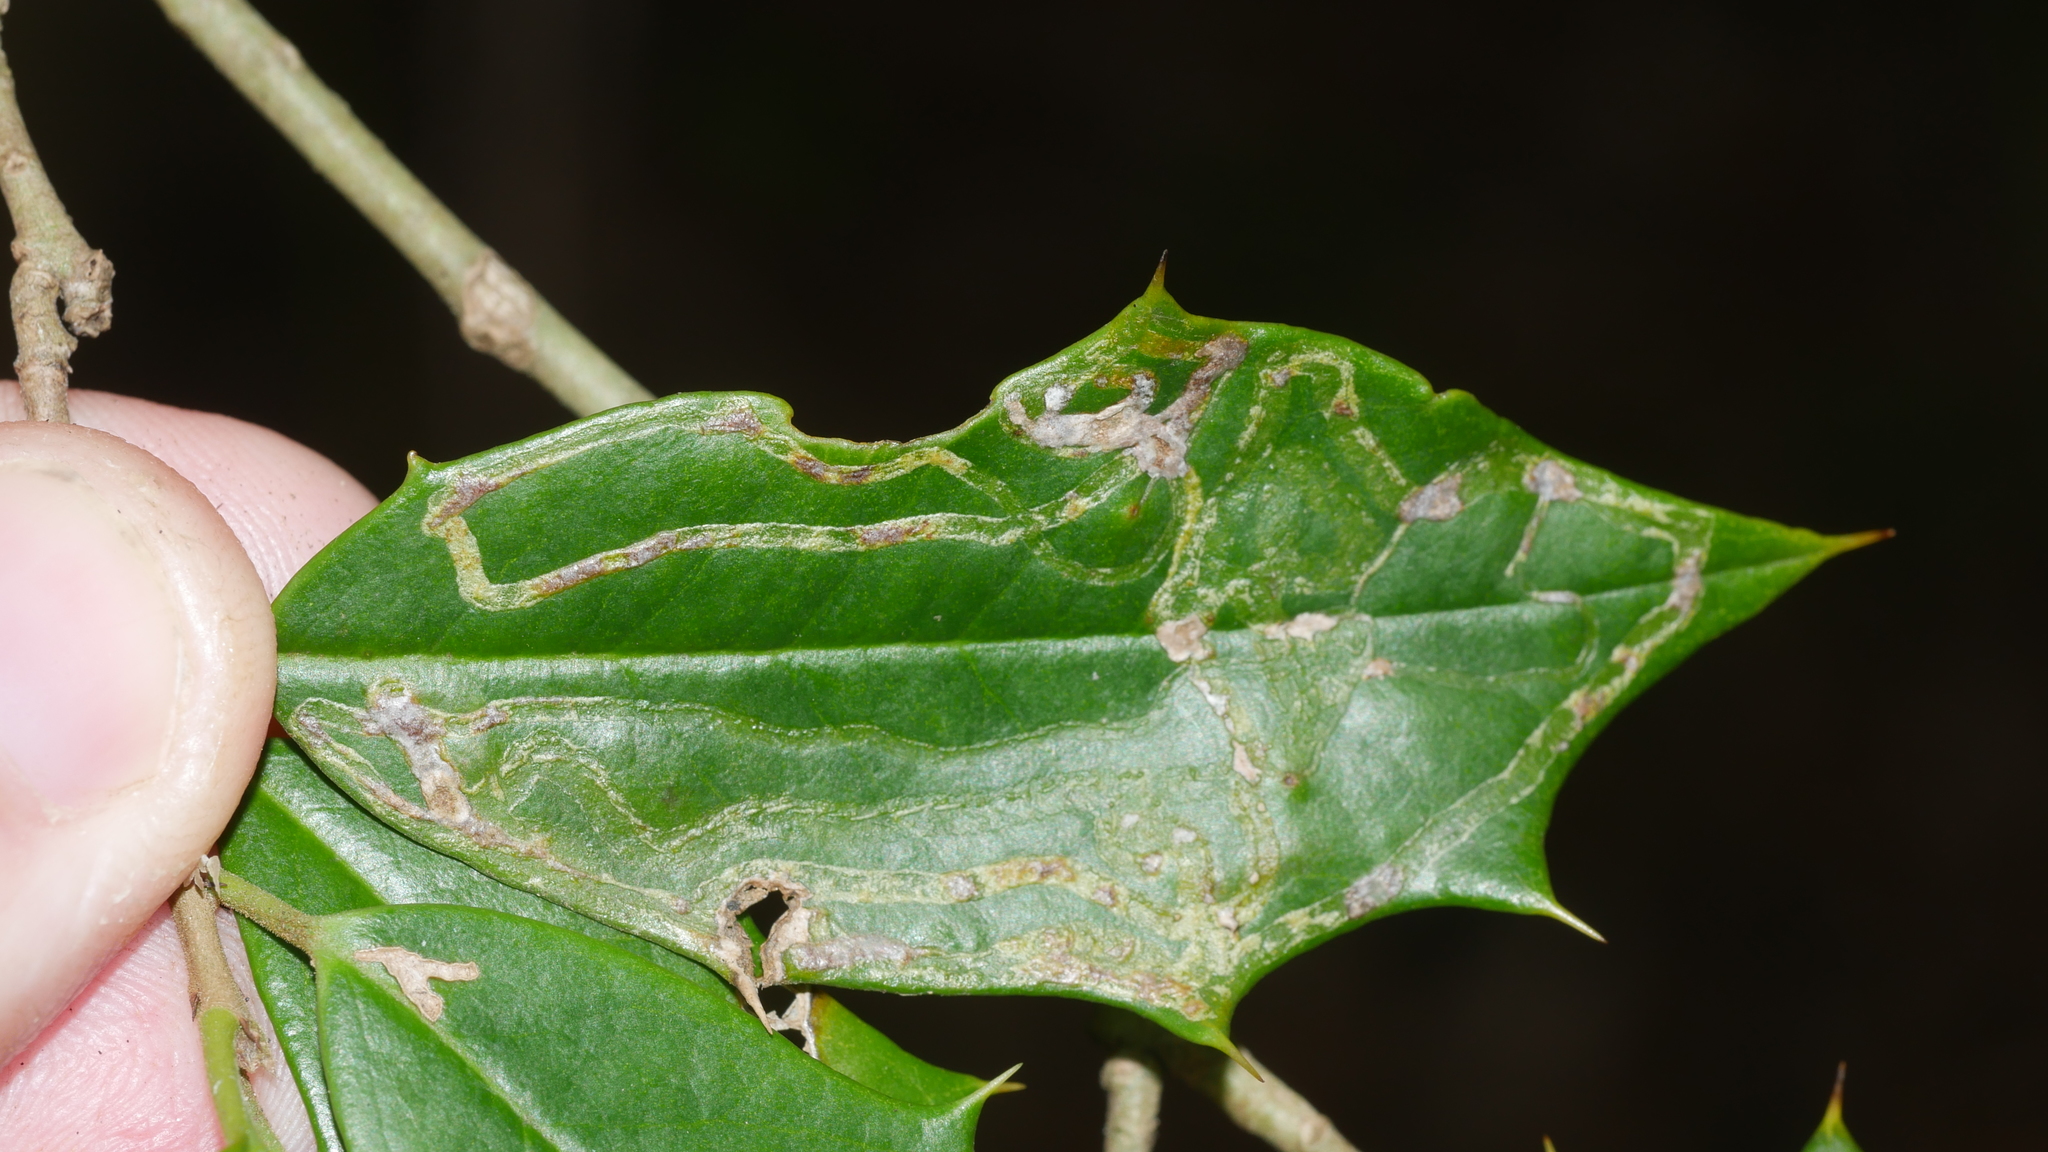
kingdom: Animalia
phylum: Arthropoda
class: Insecta
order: Diptera
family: Agromyzidae
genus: Phytomyza
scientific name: Phytomyza opacae
